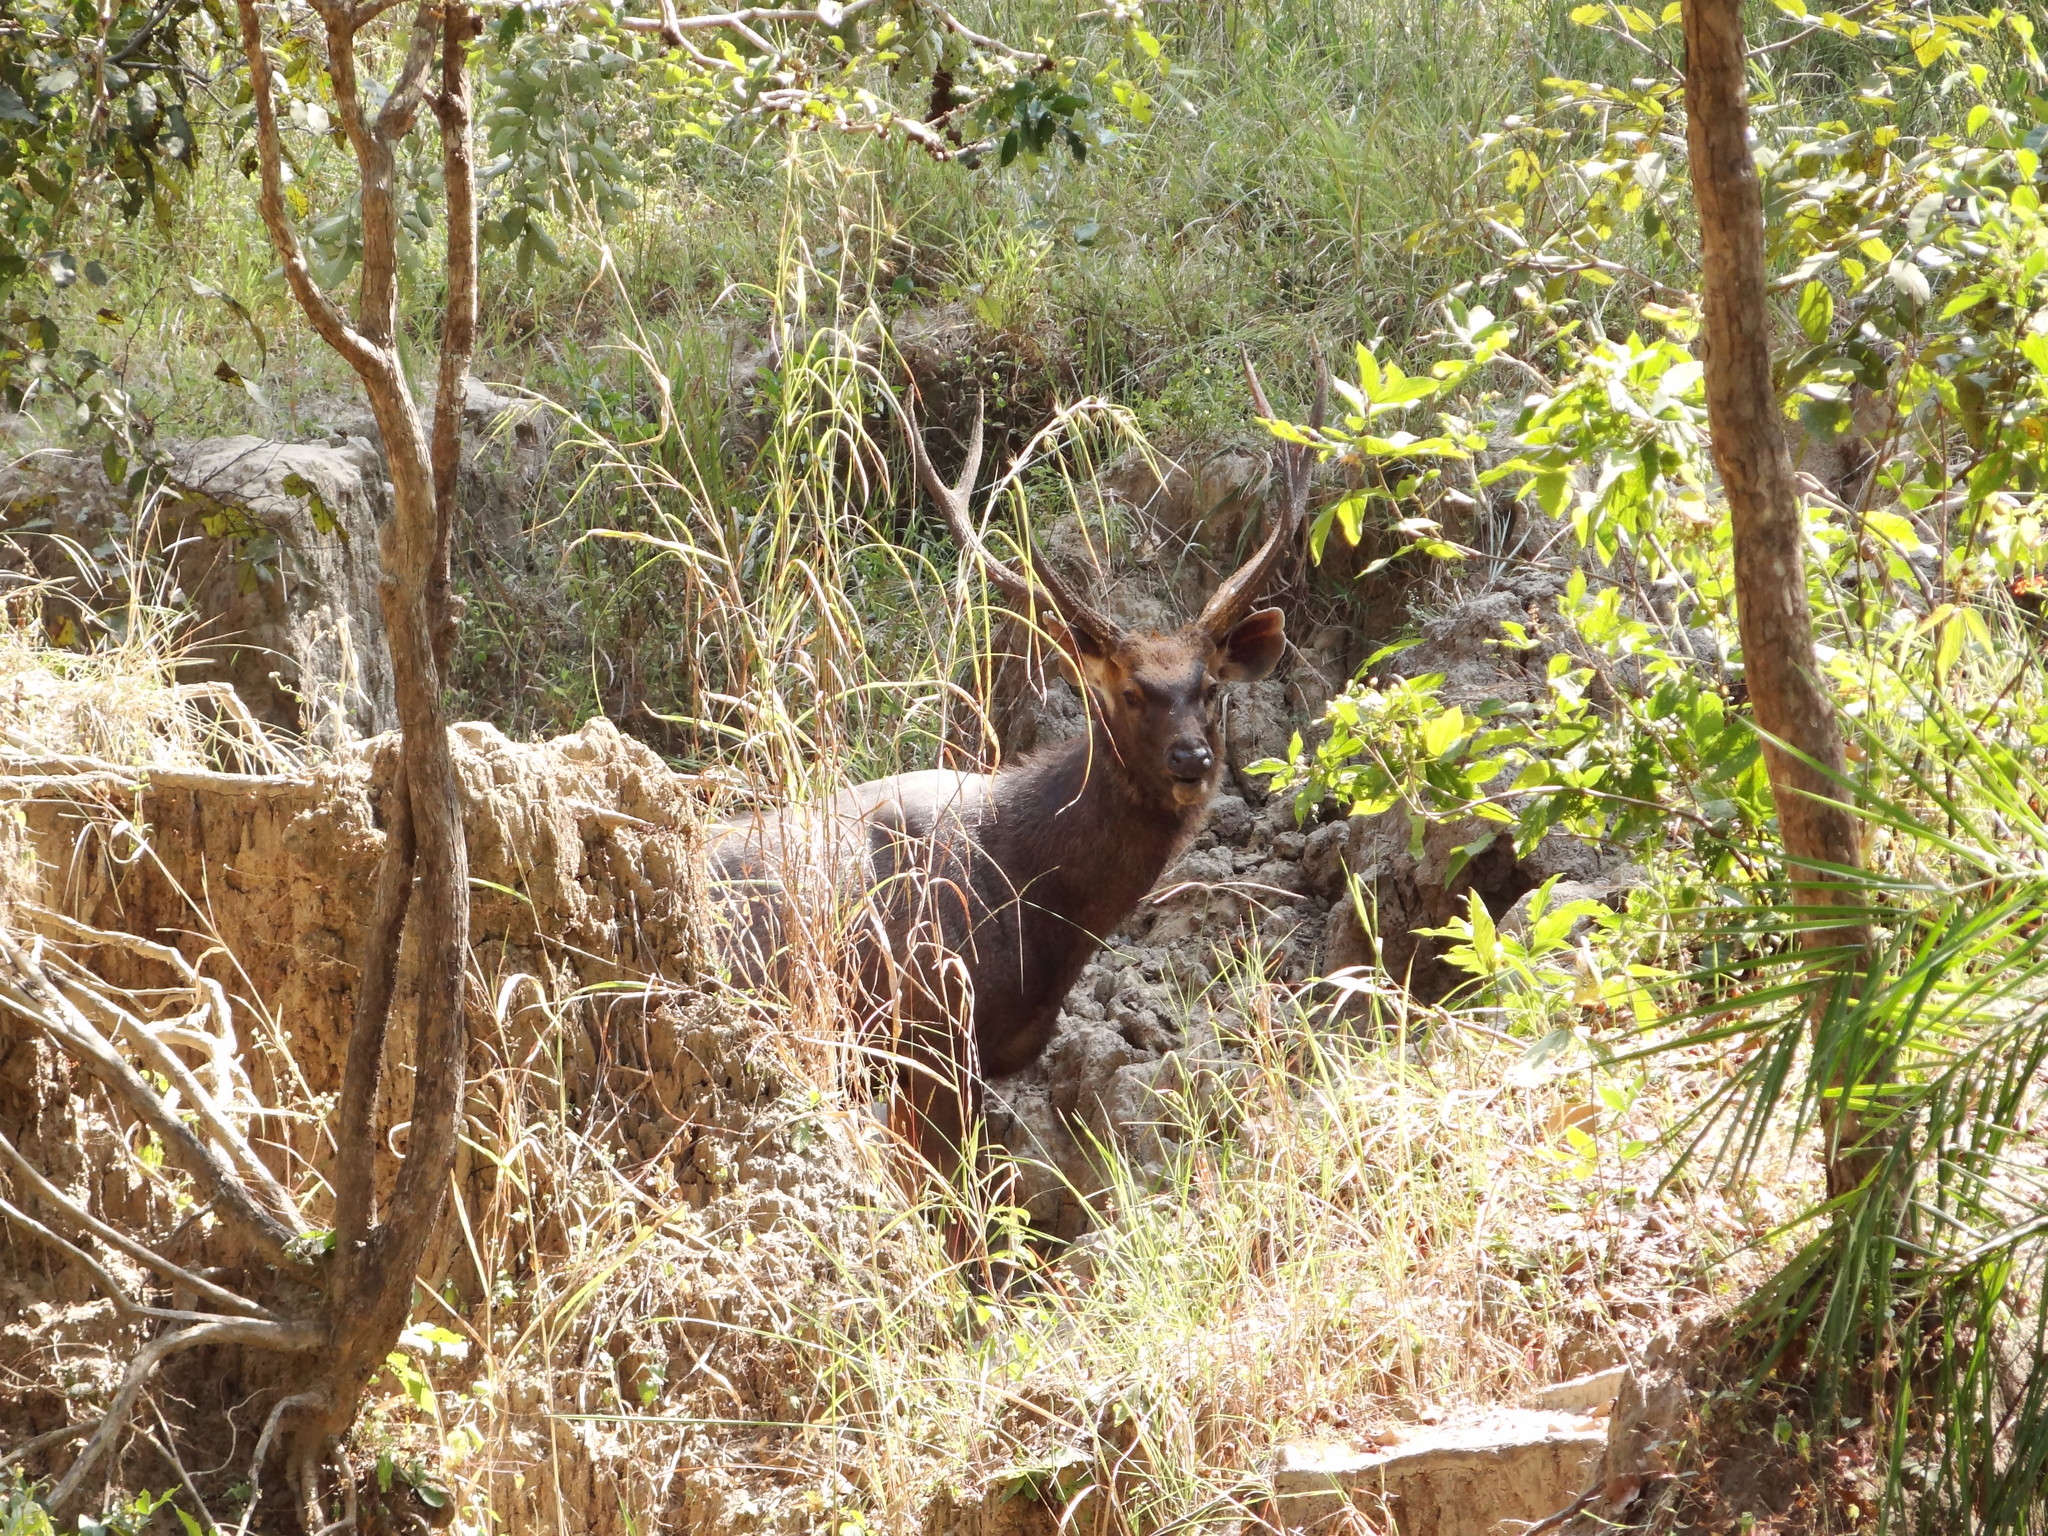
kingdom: Animalia
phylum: Chordata
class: Mammalia
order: Artiodactyla
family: Cervidae
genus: Rusa
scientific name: Rusa unicolor
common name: Sambar
